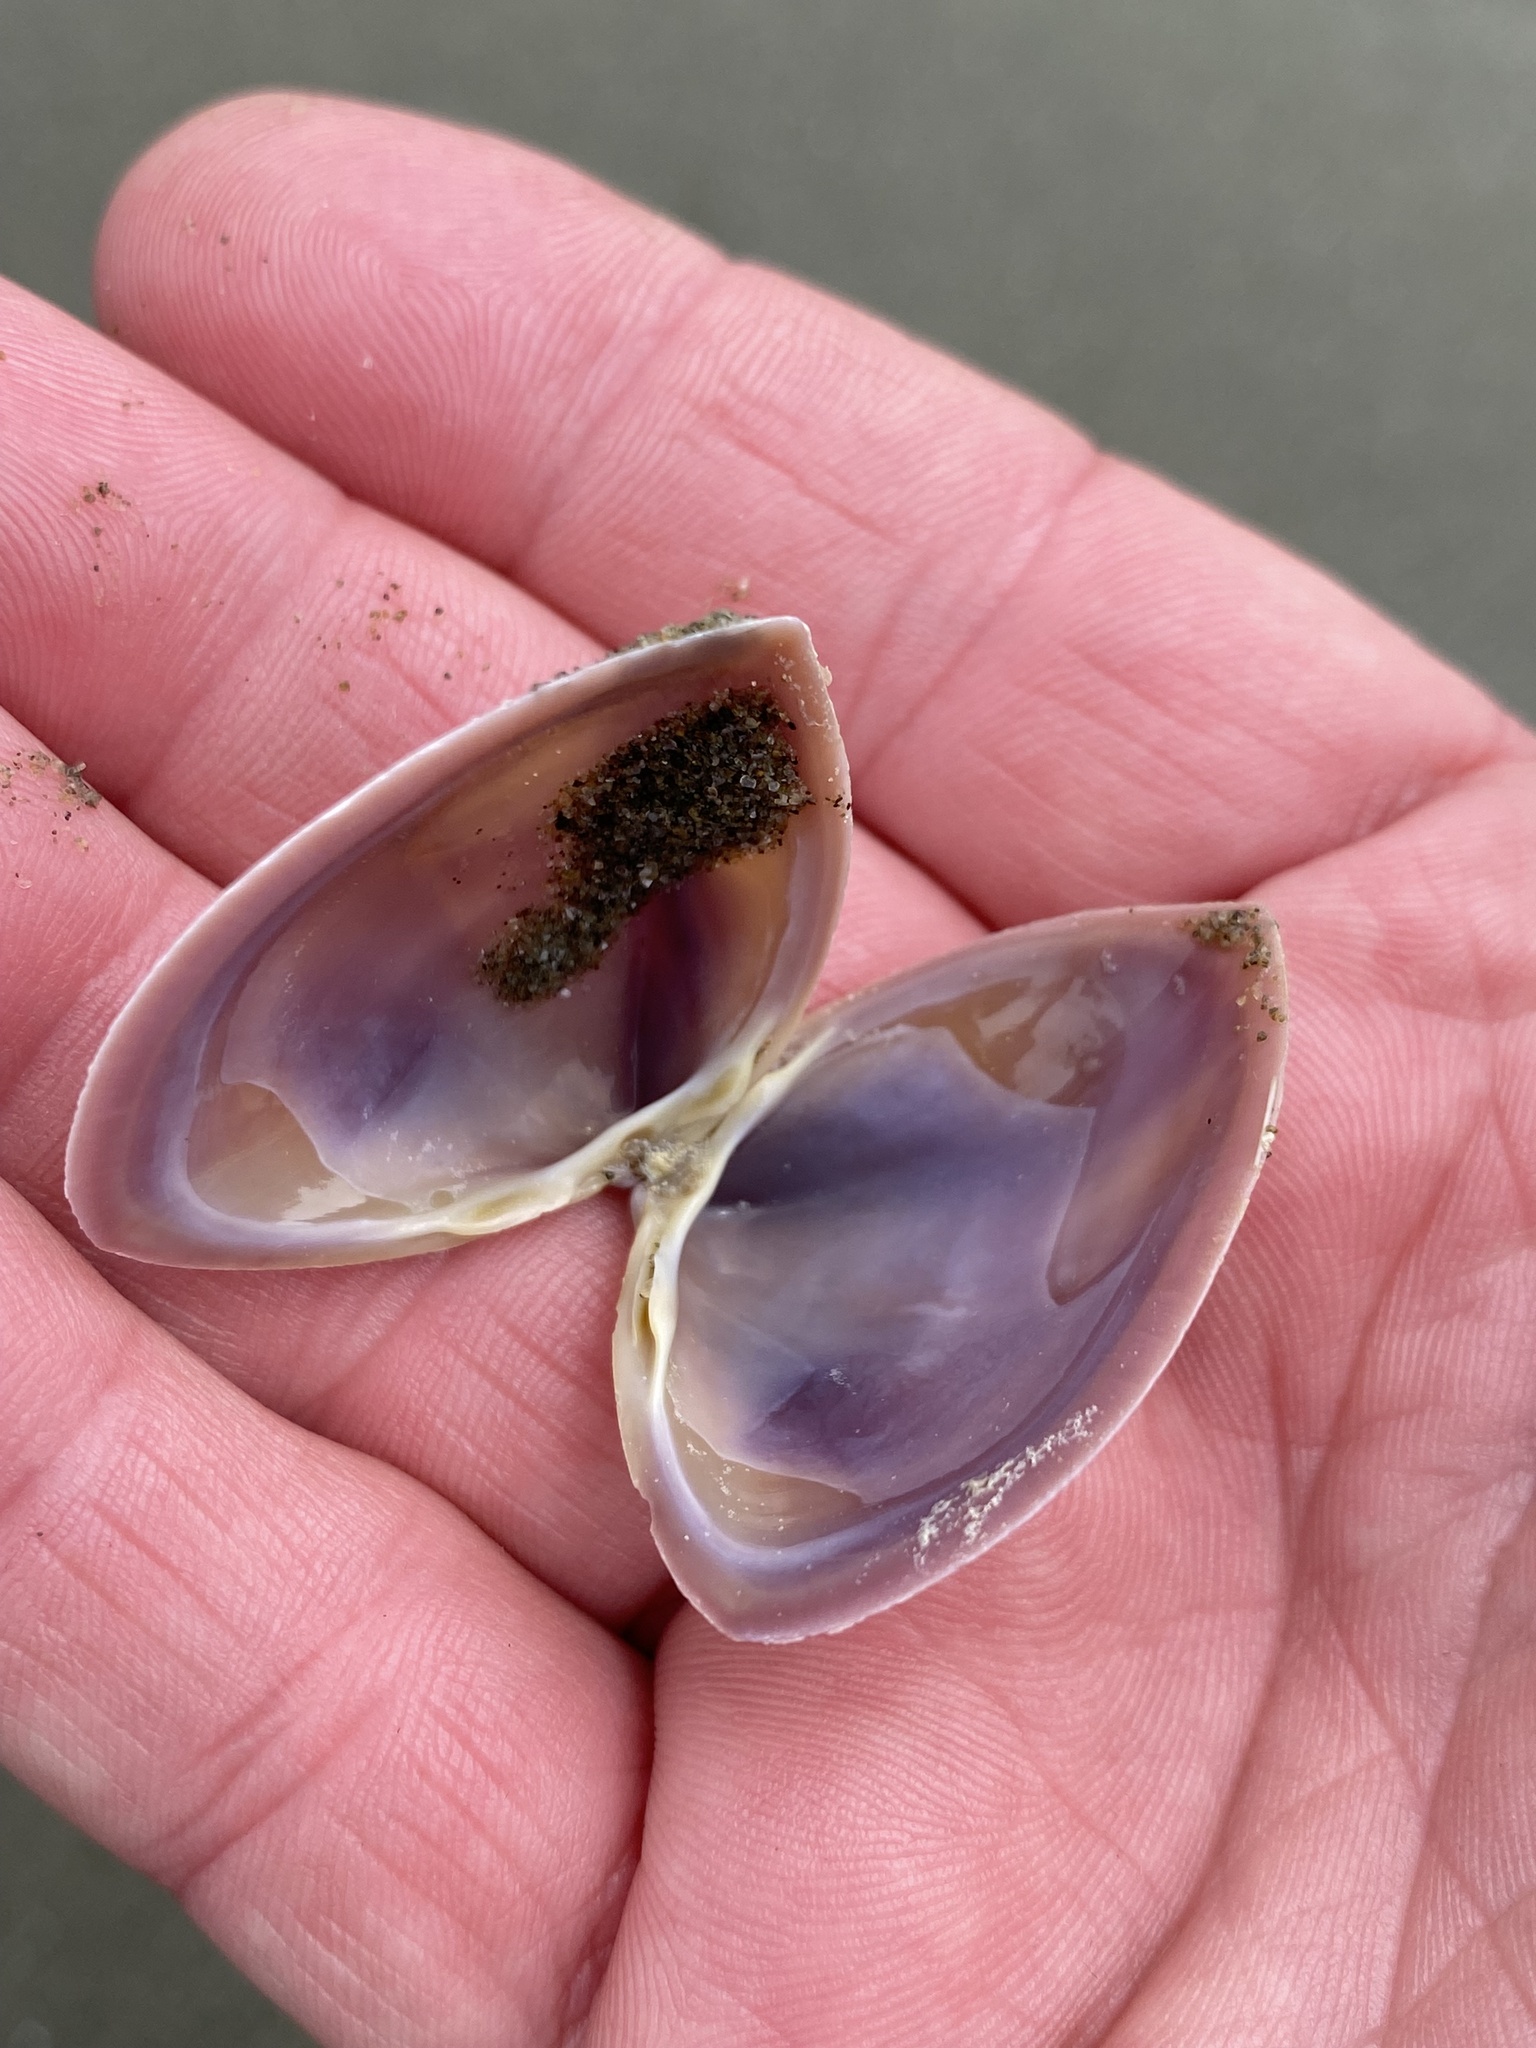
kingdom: Animalia
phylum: Mollusca
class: Bivalvia
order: Venerida
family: Mactridae
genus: Crassula
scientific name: Crassula aequilatera
